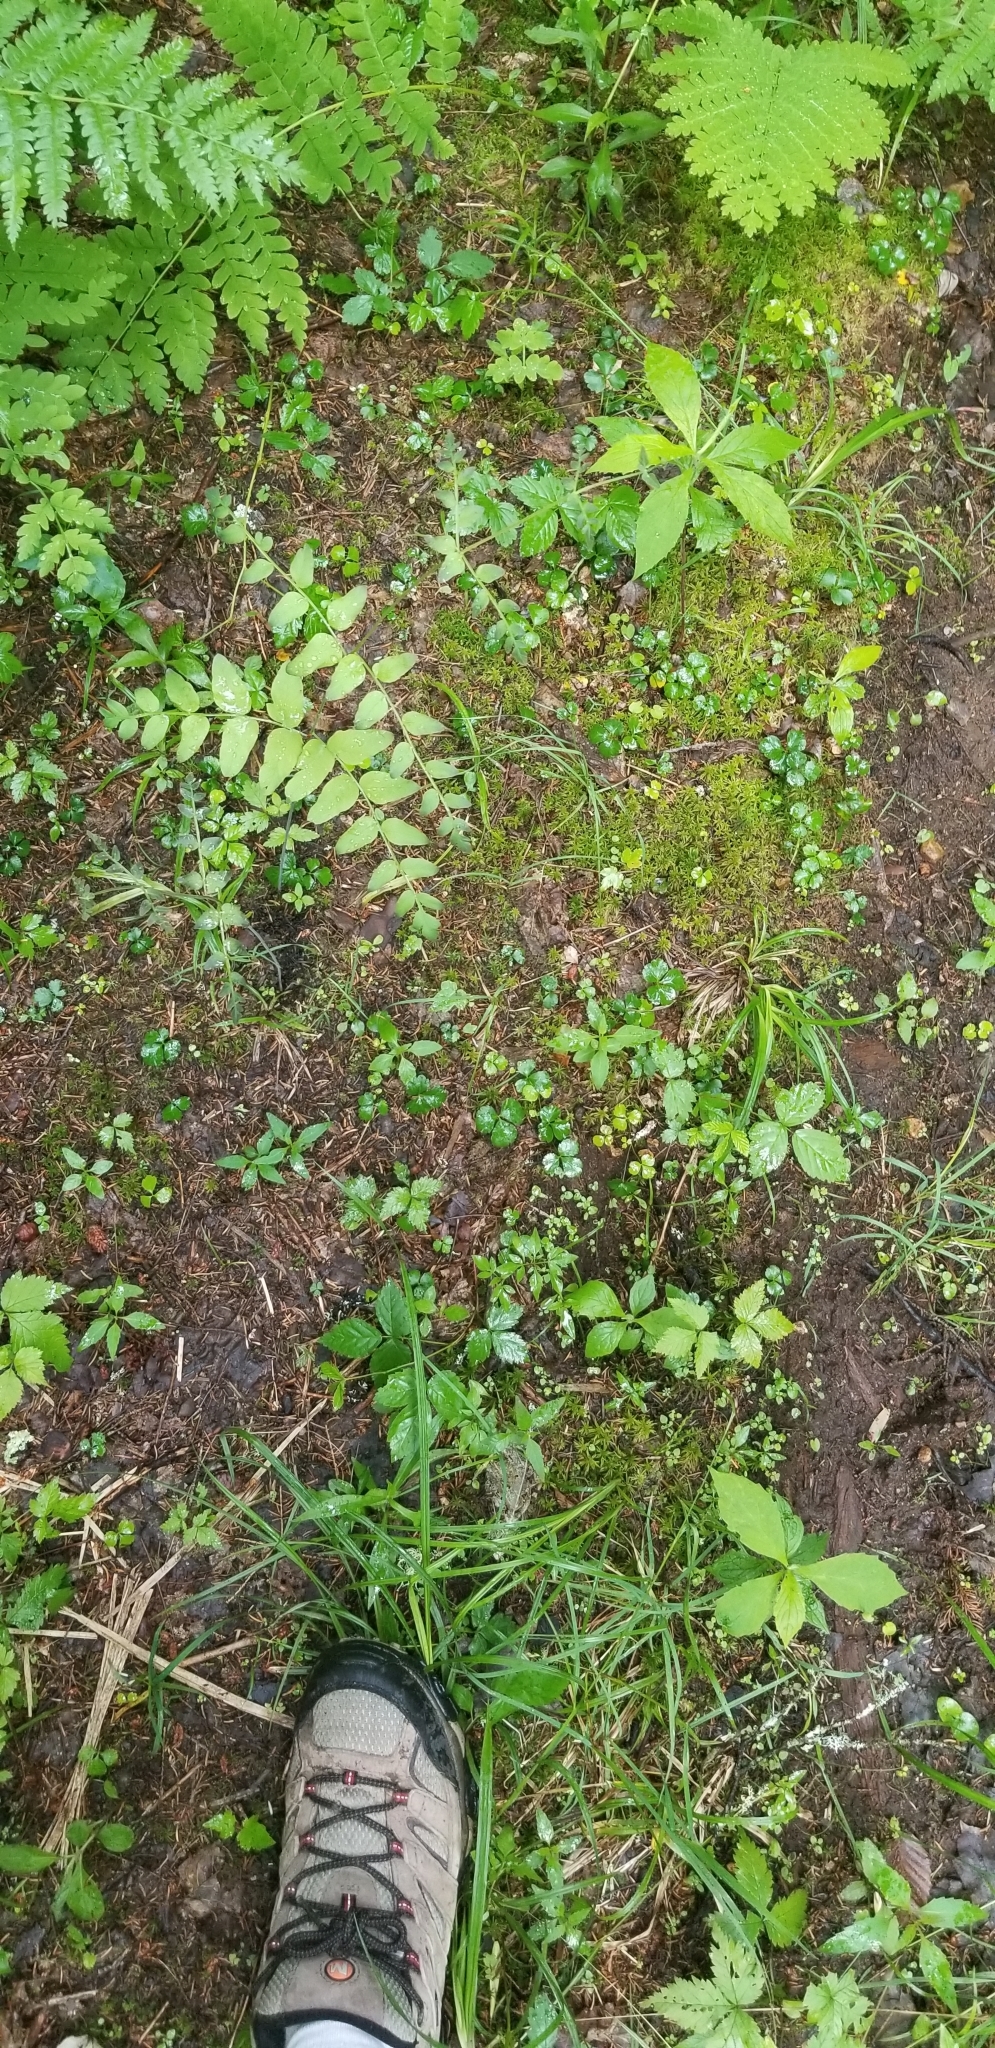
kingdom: Plantae
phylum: Tracheophyta
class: Polypodiopsida
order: Osmundales
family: Osmundaceae
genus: Osmunda
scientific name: Osmunda spectabilis
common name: American royal fern
